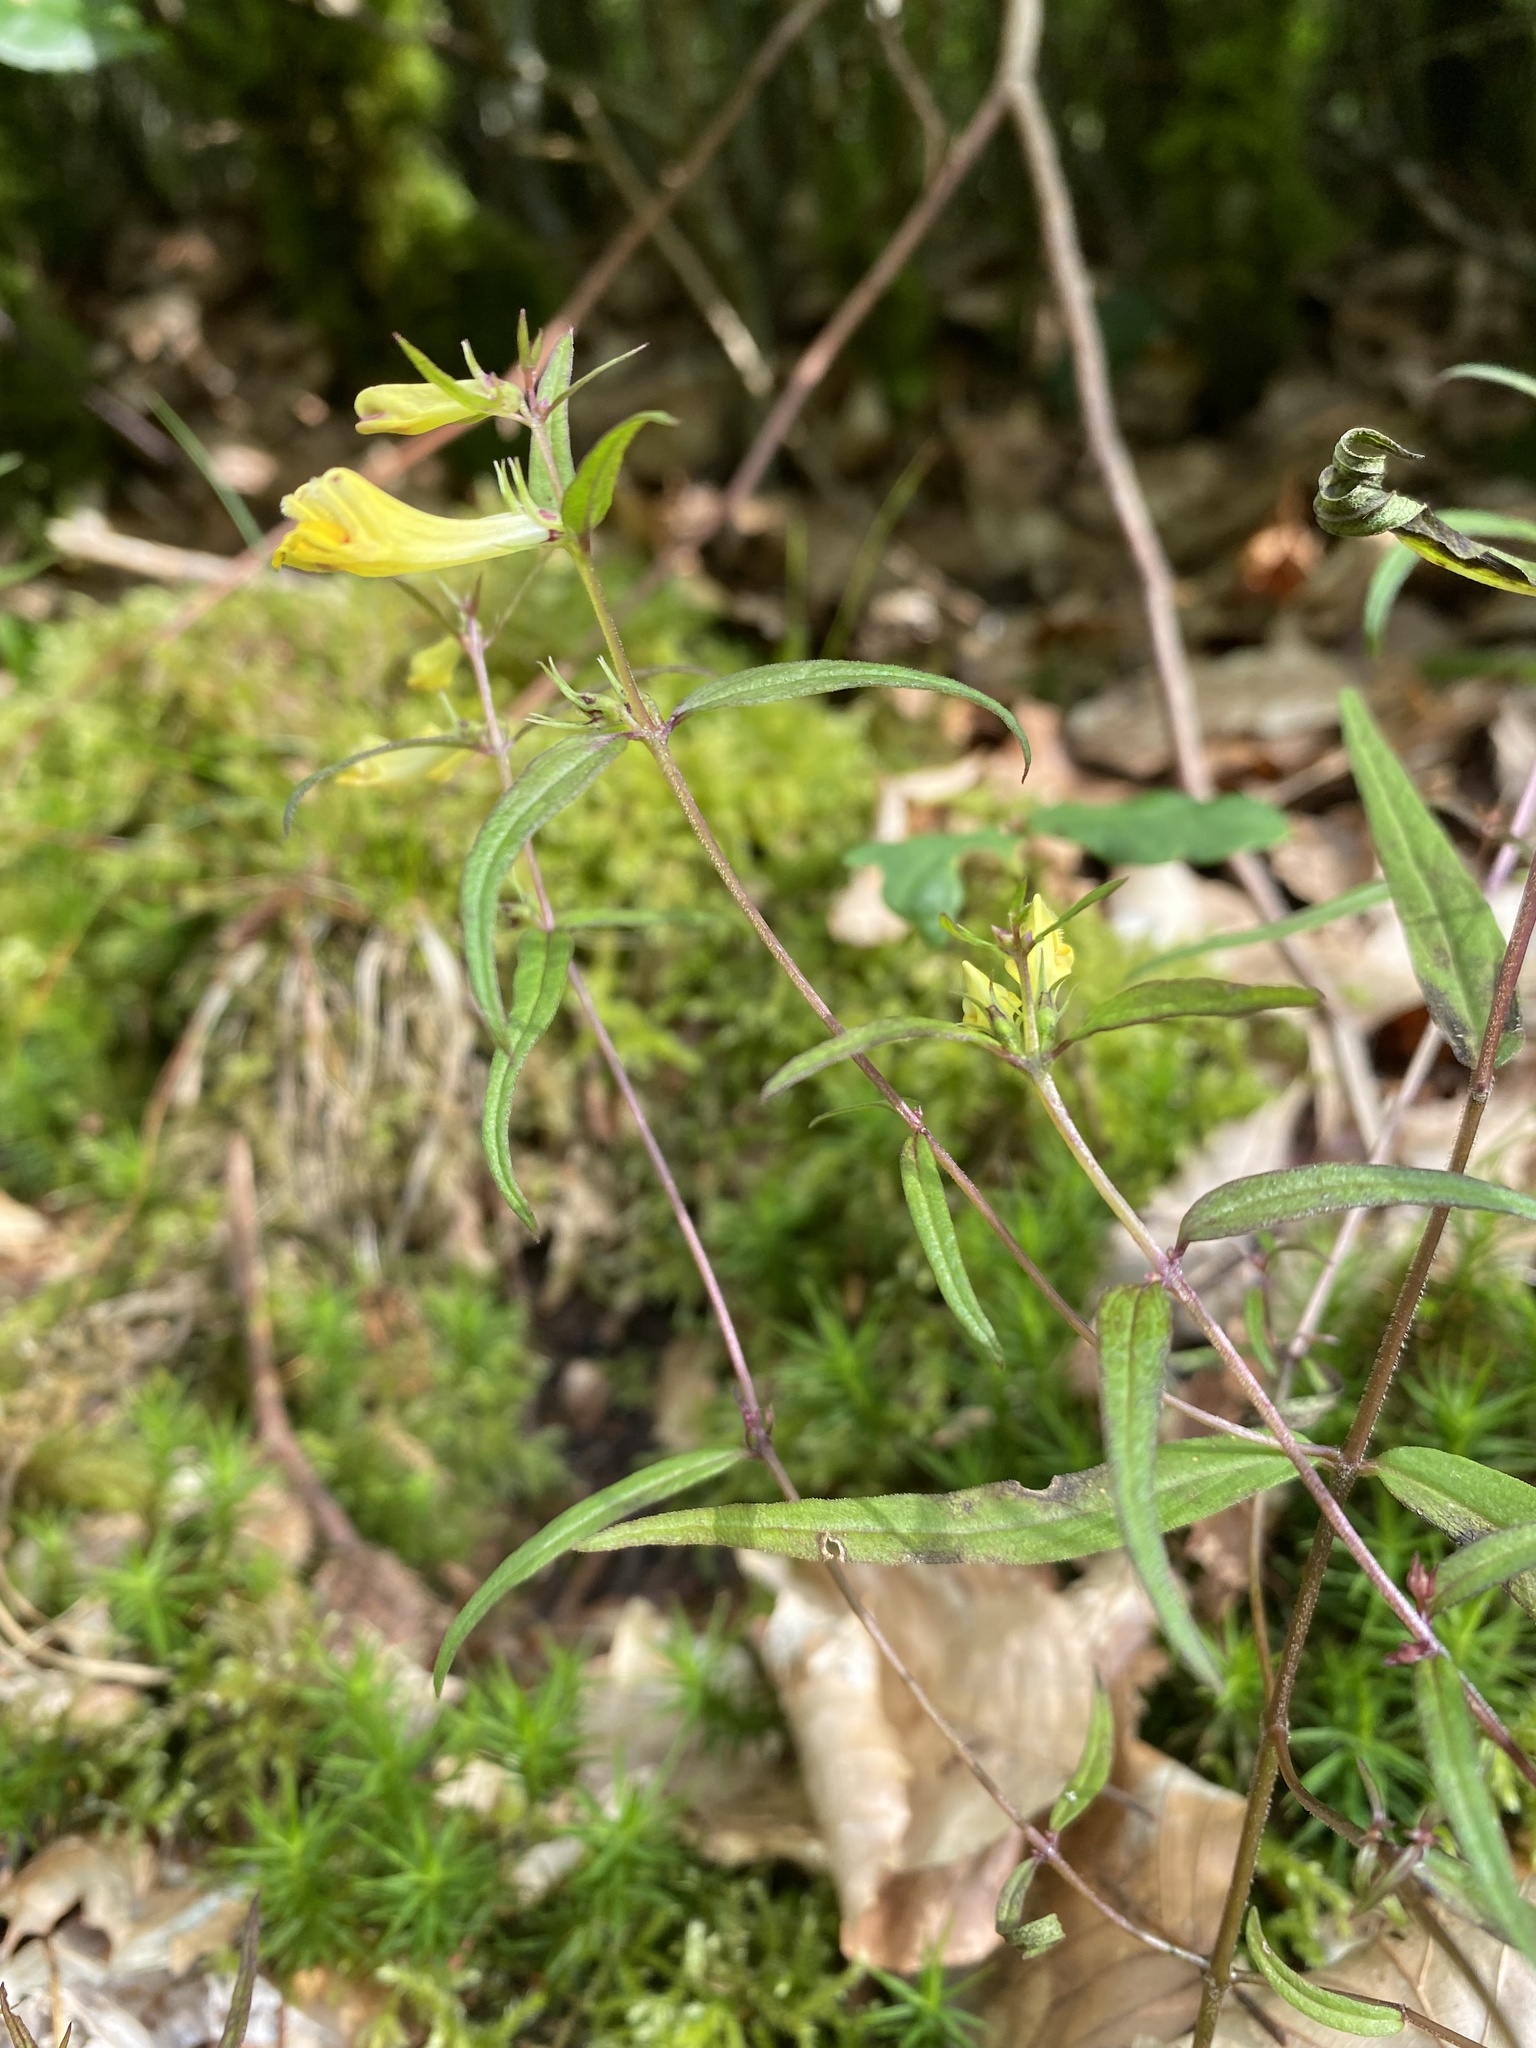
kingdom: Plantae
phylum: Tracheophyta
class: Magnoliopsida
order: Lamiales
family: Orobanchaceae
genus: Melampyrum
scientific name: Melampyrum pratense
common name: Common cow-wheat
